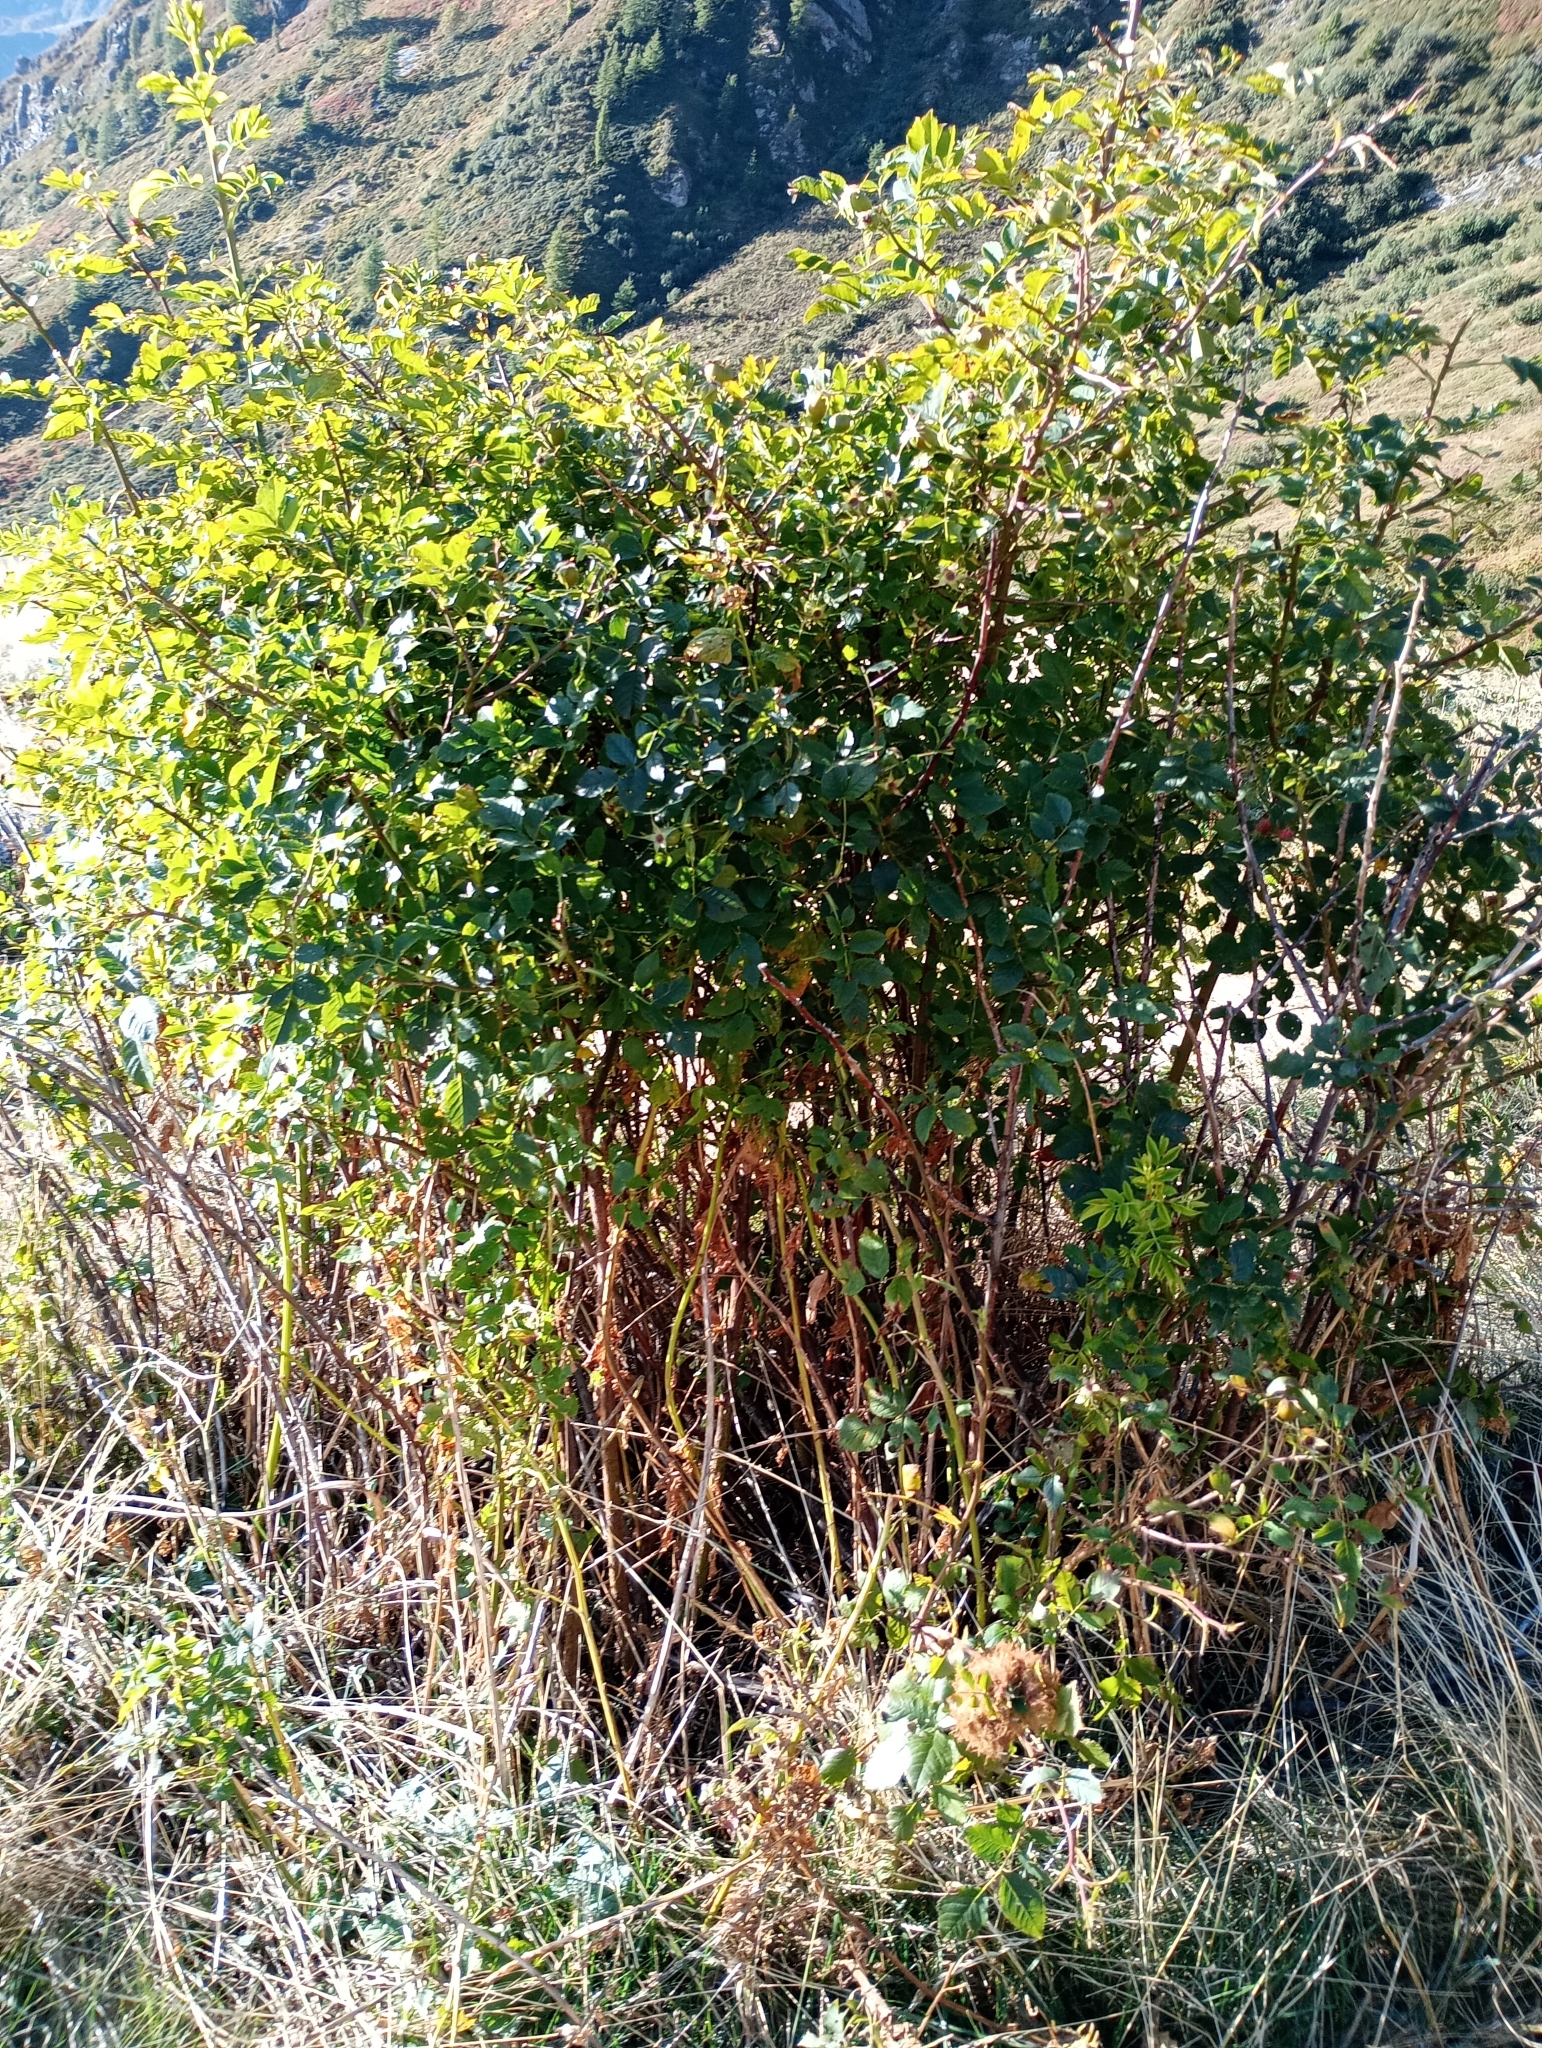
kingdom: Animalia
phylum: Arthropoda
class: Insecta
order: Hymenoptera
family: Cynipidae
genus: Diplolepis
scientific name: Diplolepis rosae
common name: Bedeguar gall
